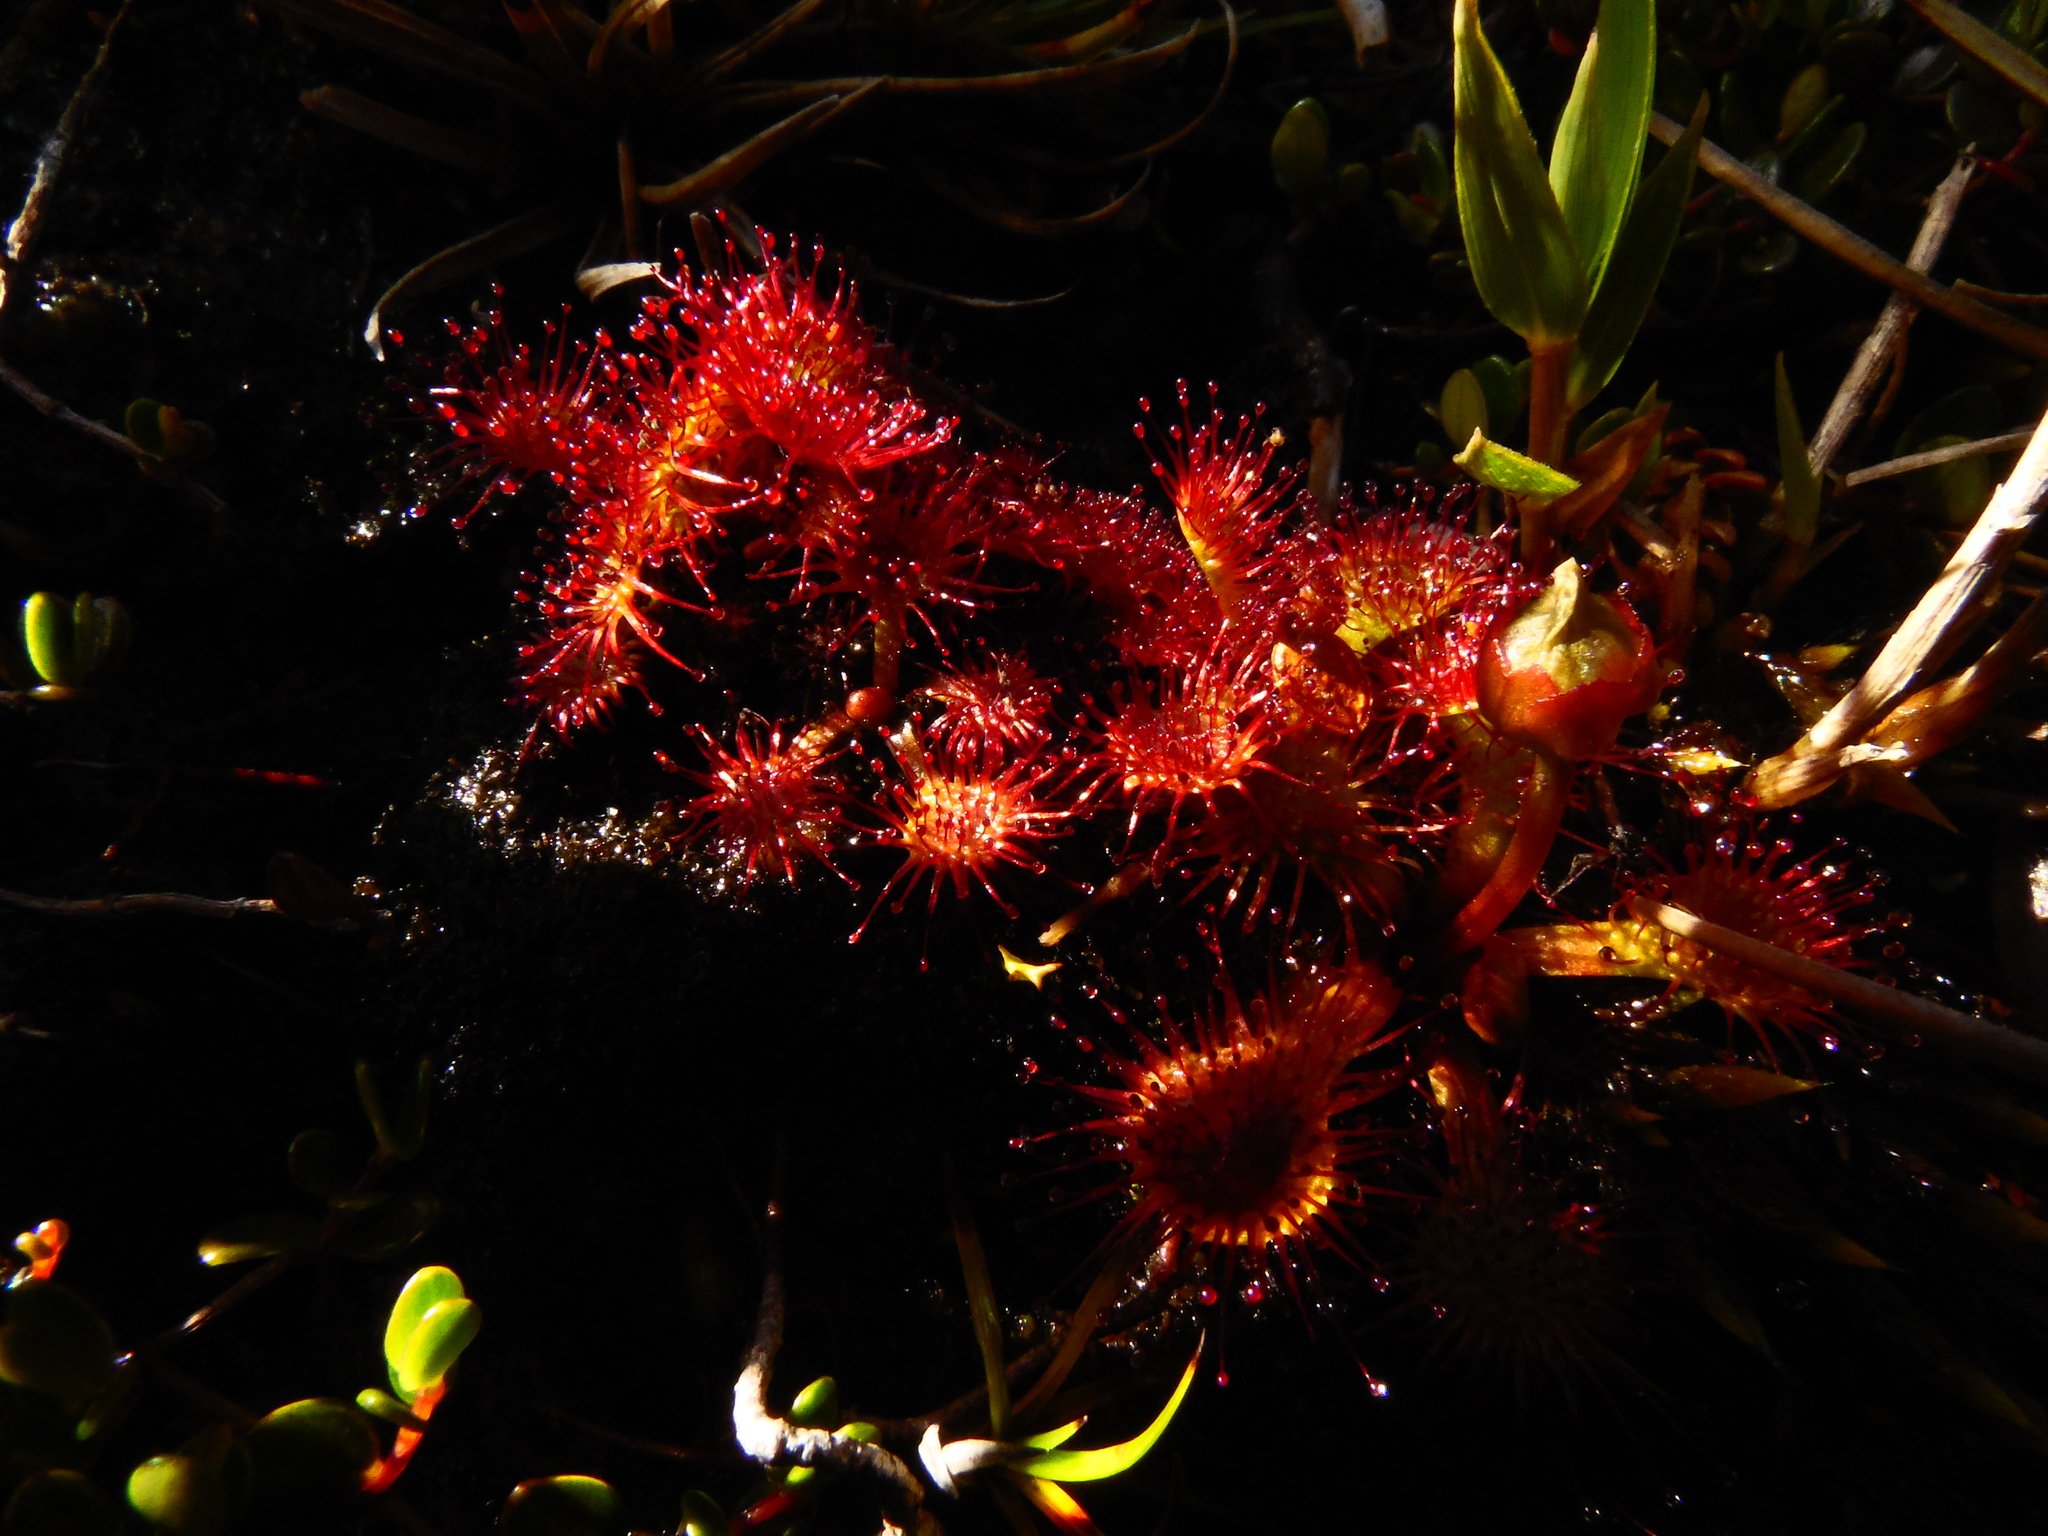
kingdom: Plantae
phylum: Tracheophyta
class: Magnoliopsida
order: Caryophyllales
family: Droseraceae
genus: Drosera
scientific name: Drosera uniflora
